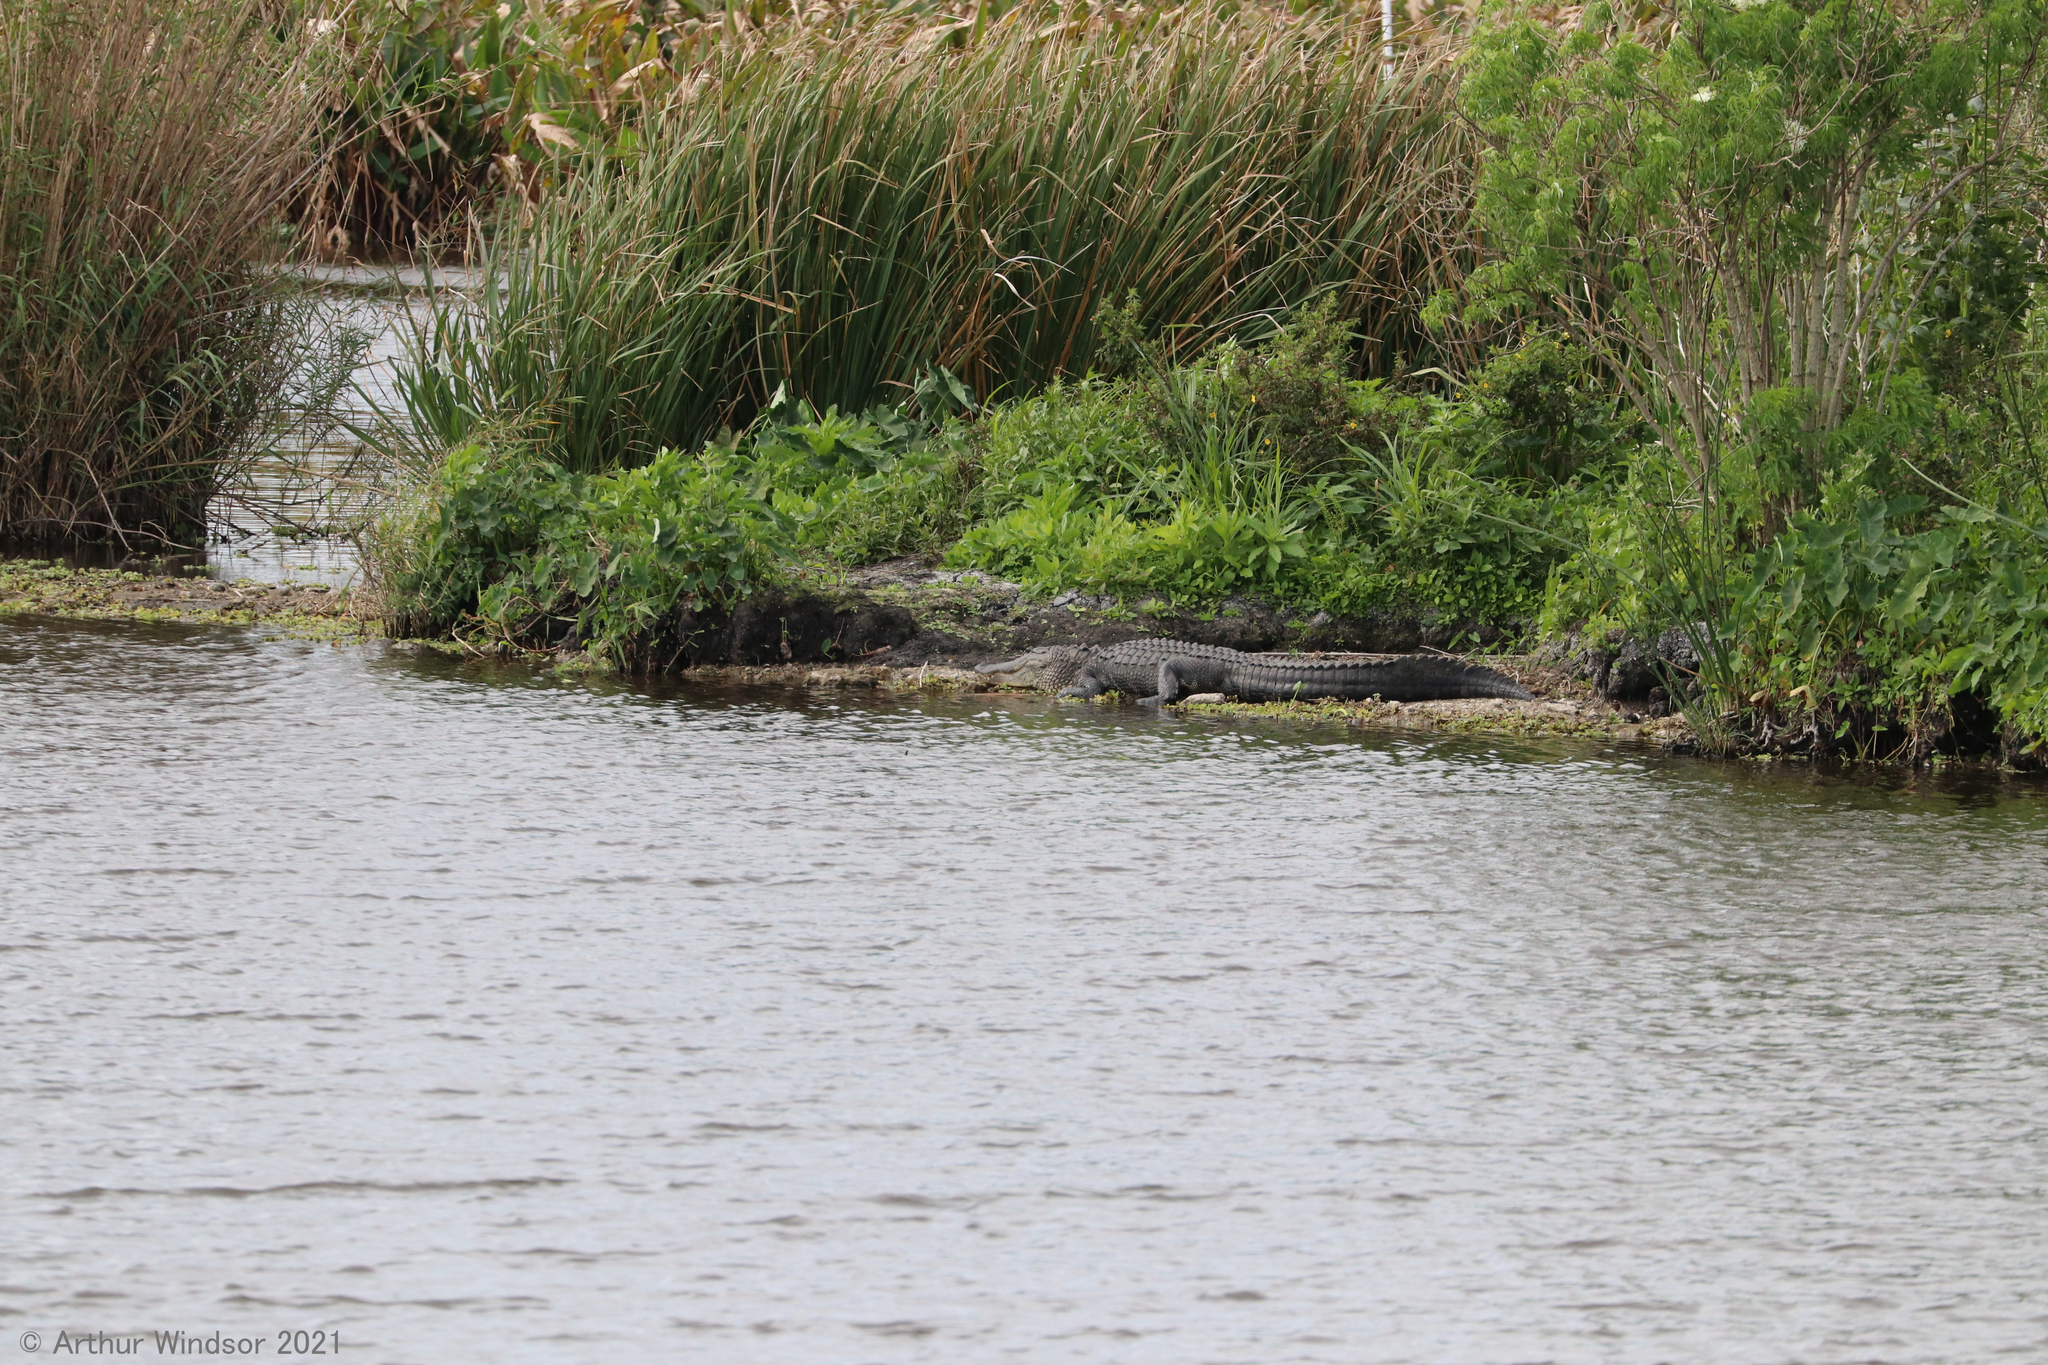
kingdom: Animalia
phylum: Chordata
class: Crocodylia
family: Alligatoridae
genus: Alligator
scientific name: Alligator mississippiensis
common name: American alligator
